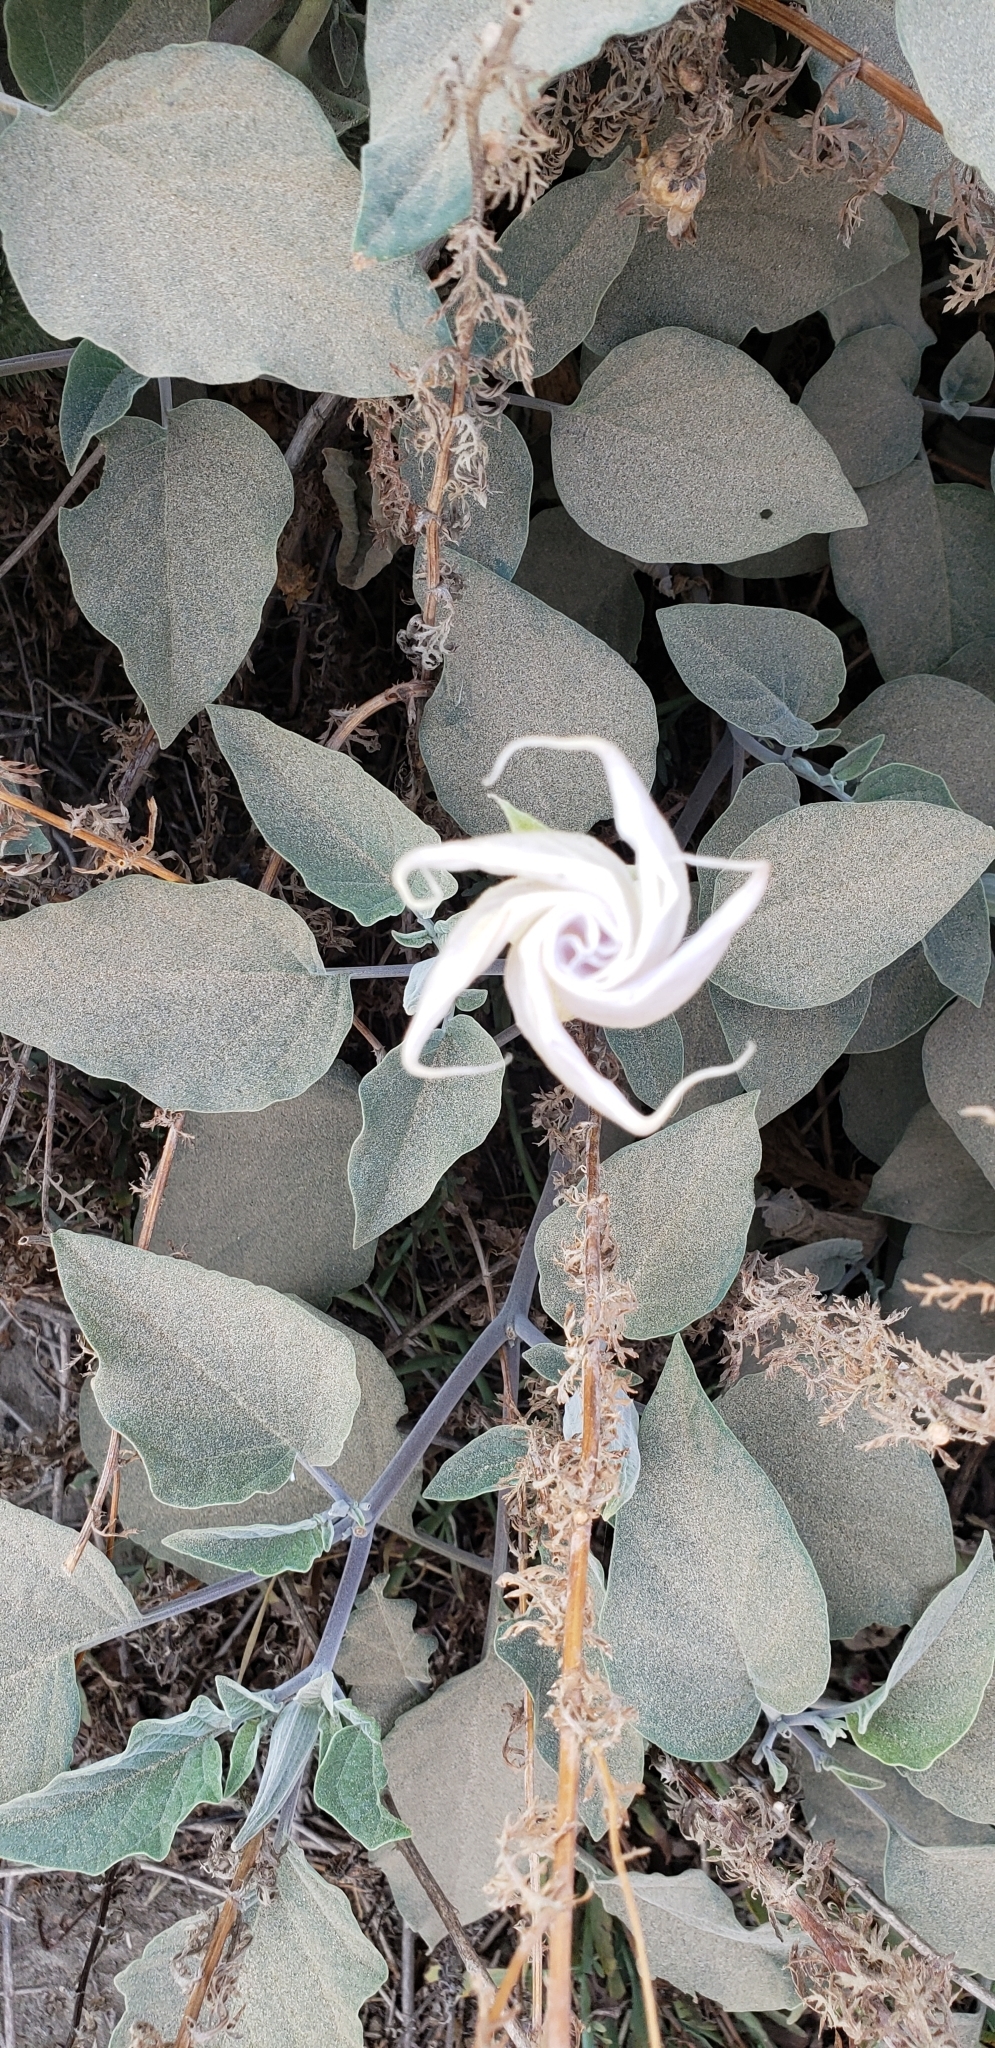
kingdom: Plantae
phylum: Tracheophyta
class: Magnoliopsida
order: Solanales
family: Solanaceae
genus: Datura
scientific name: Datura wrightii
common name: Sacred thorn-apple
